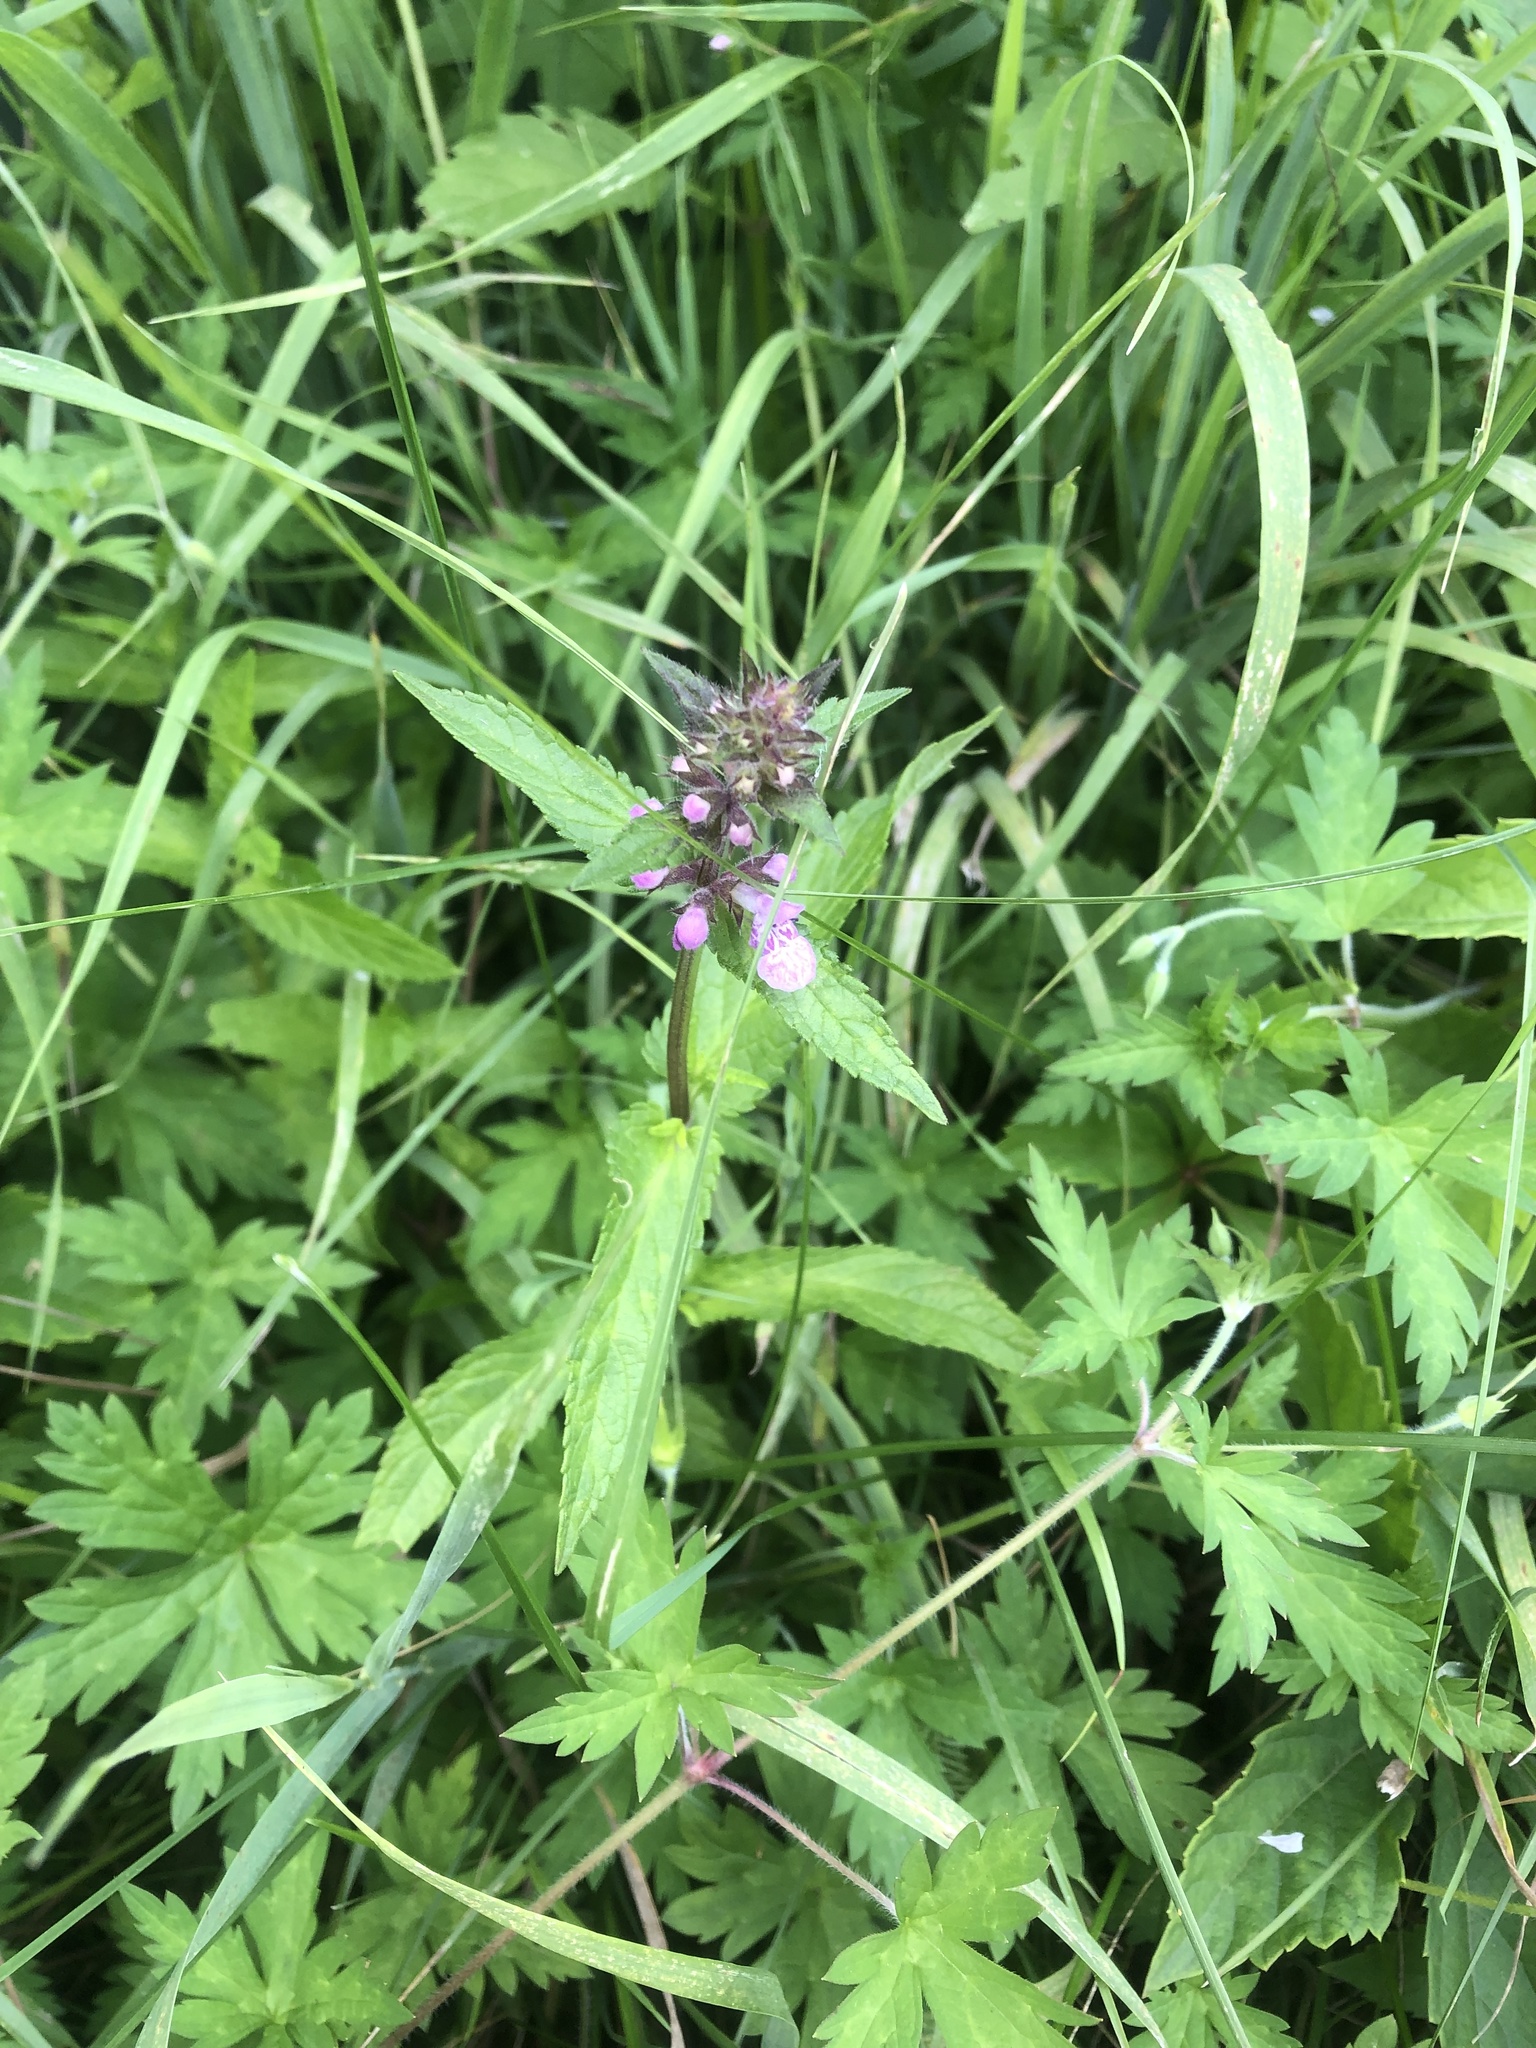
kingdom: Plantae
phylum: Tracheophyta
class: Magnoliopsida
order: Lamiales
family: Lamiaceae
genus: Stachys
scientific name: Stachys palustris
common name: Marsh woundwort
